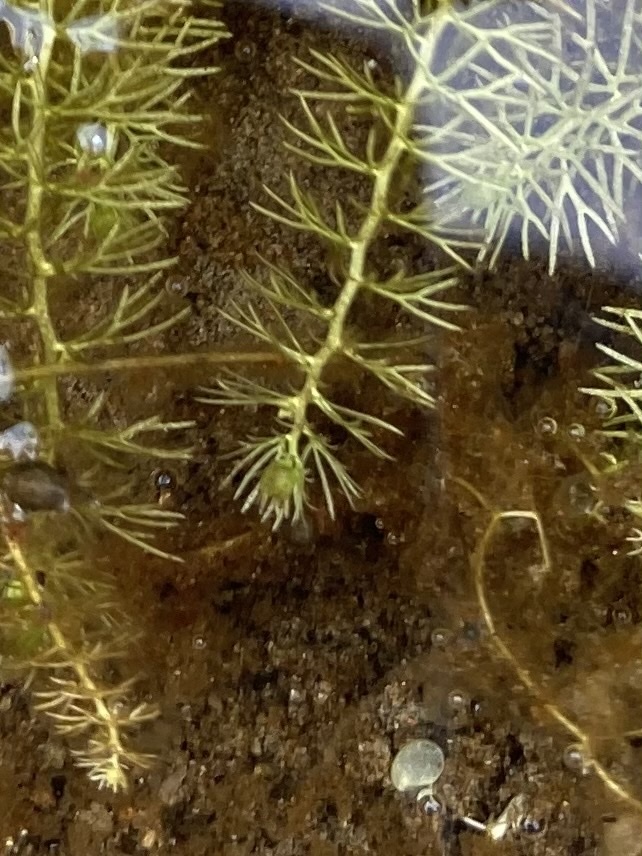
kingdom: Plantae
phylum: Tracheophyta
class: Magnoliopsida
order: Lamiales
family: Lentibulariaceae
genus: Utricularia
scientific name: Utricularia intermedia
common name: Intermediate bladderwort
